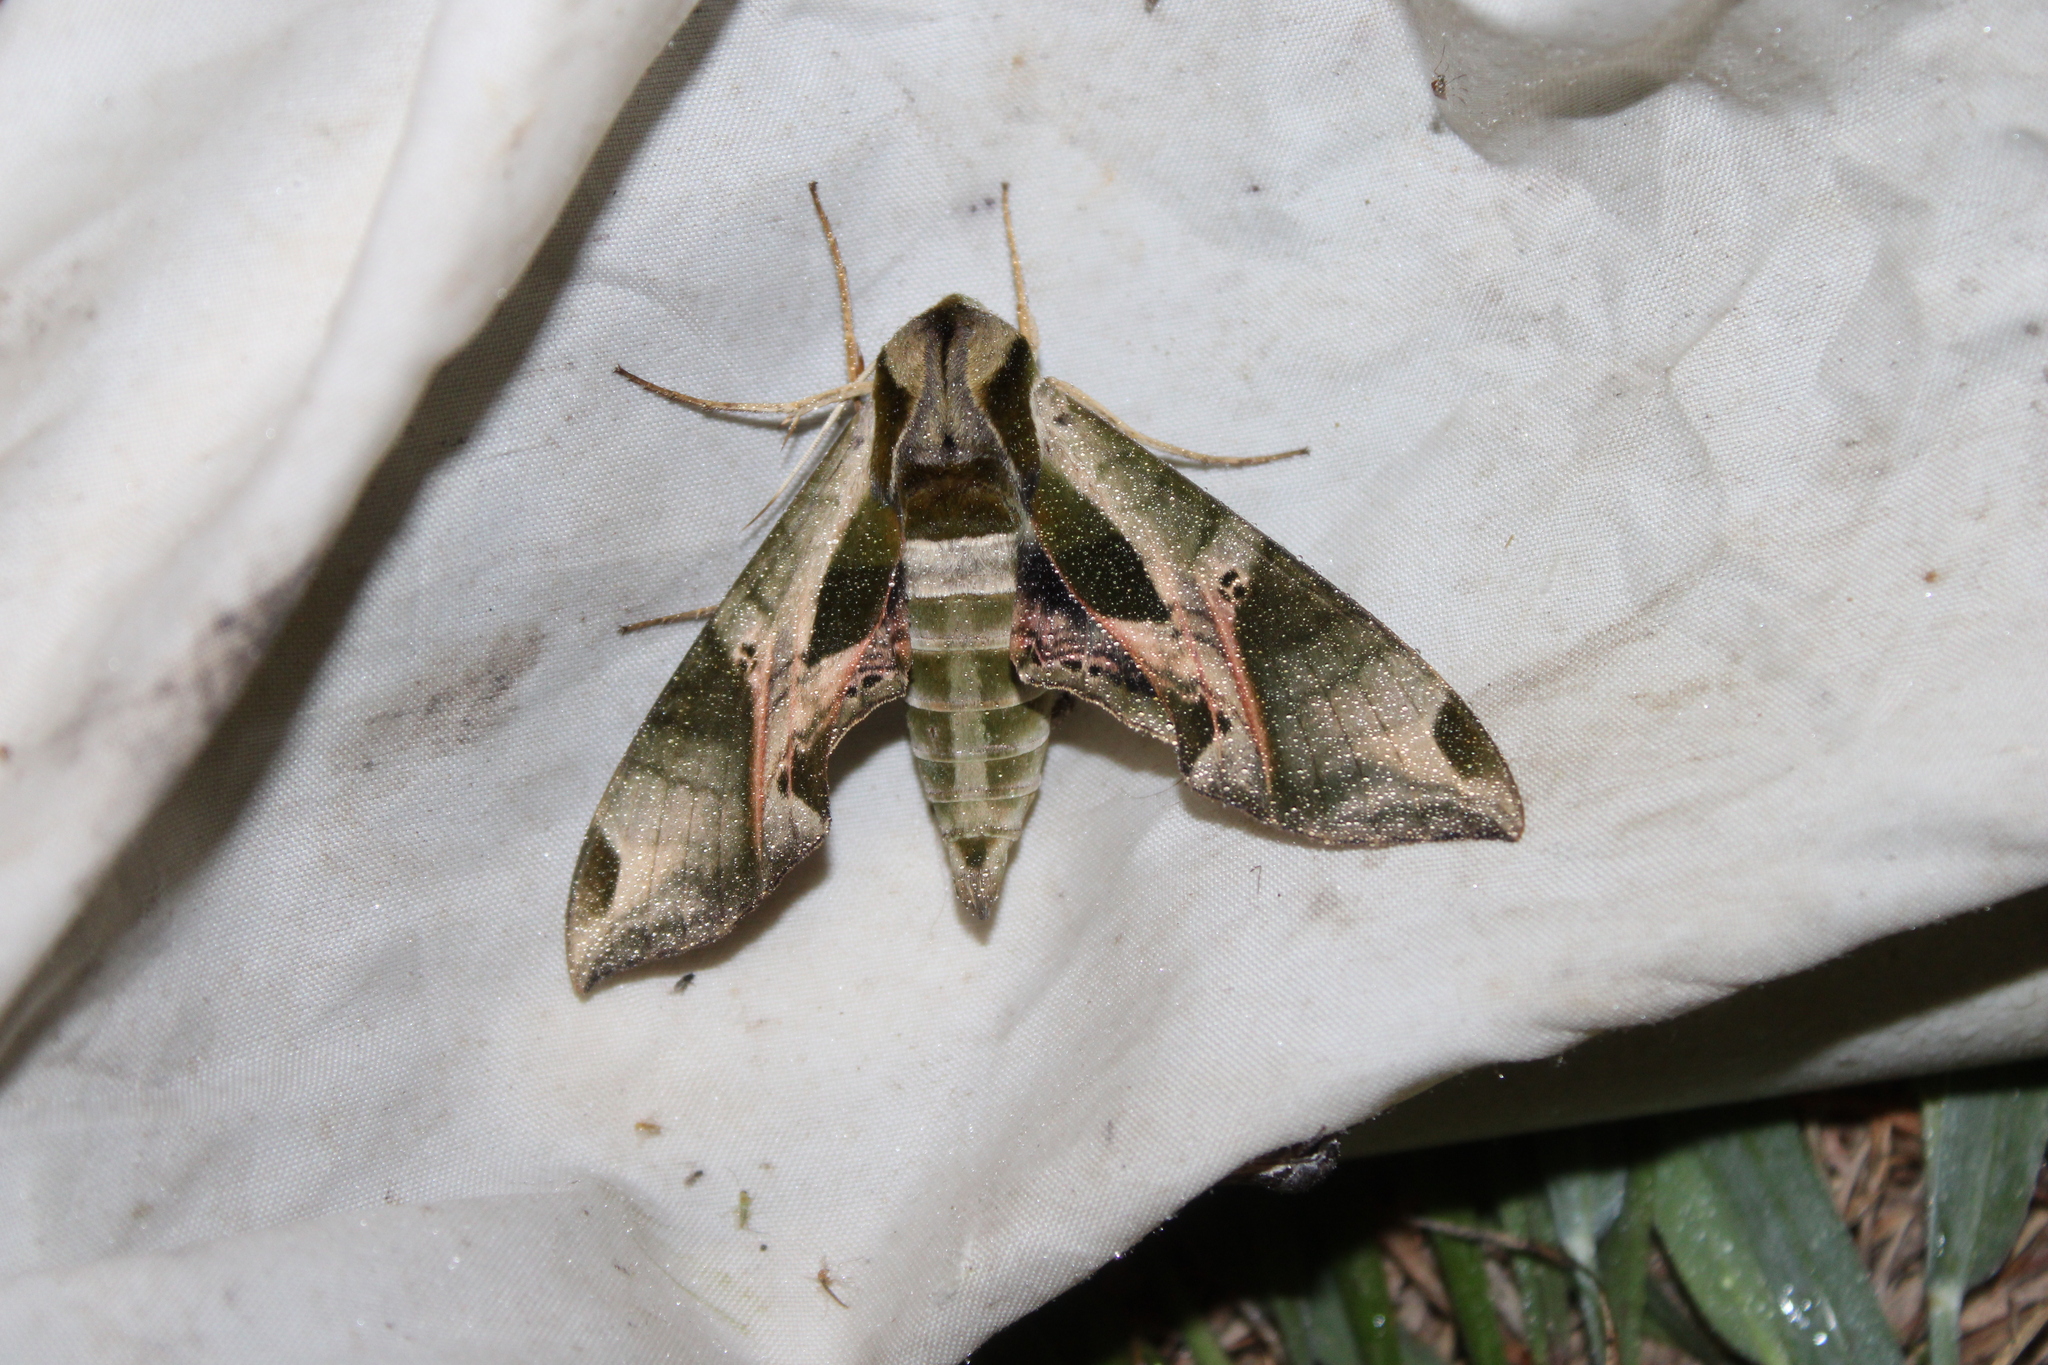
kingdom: Animalia
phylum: Arthropoda
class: Insecta
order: Lepidoptera
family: Sphingidae
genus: Eumorpha
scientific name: Eumorpha pandorus
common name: Pandora sphinx
